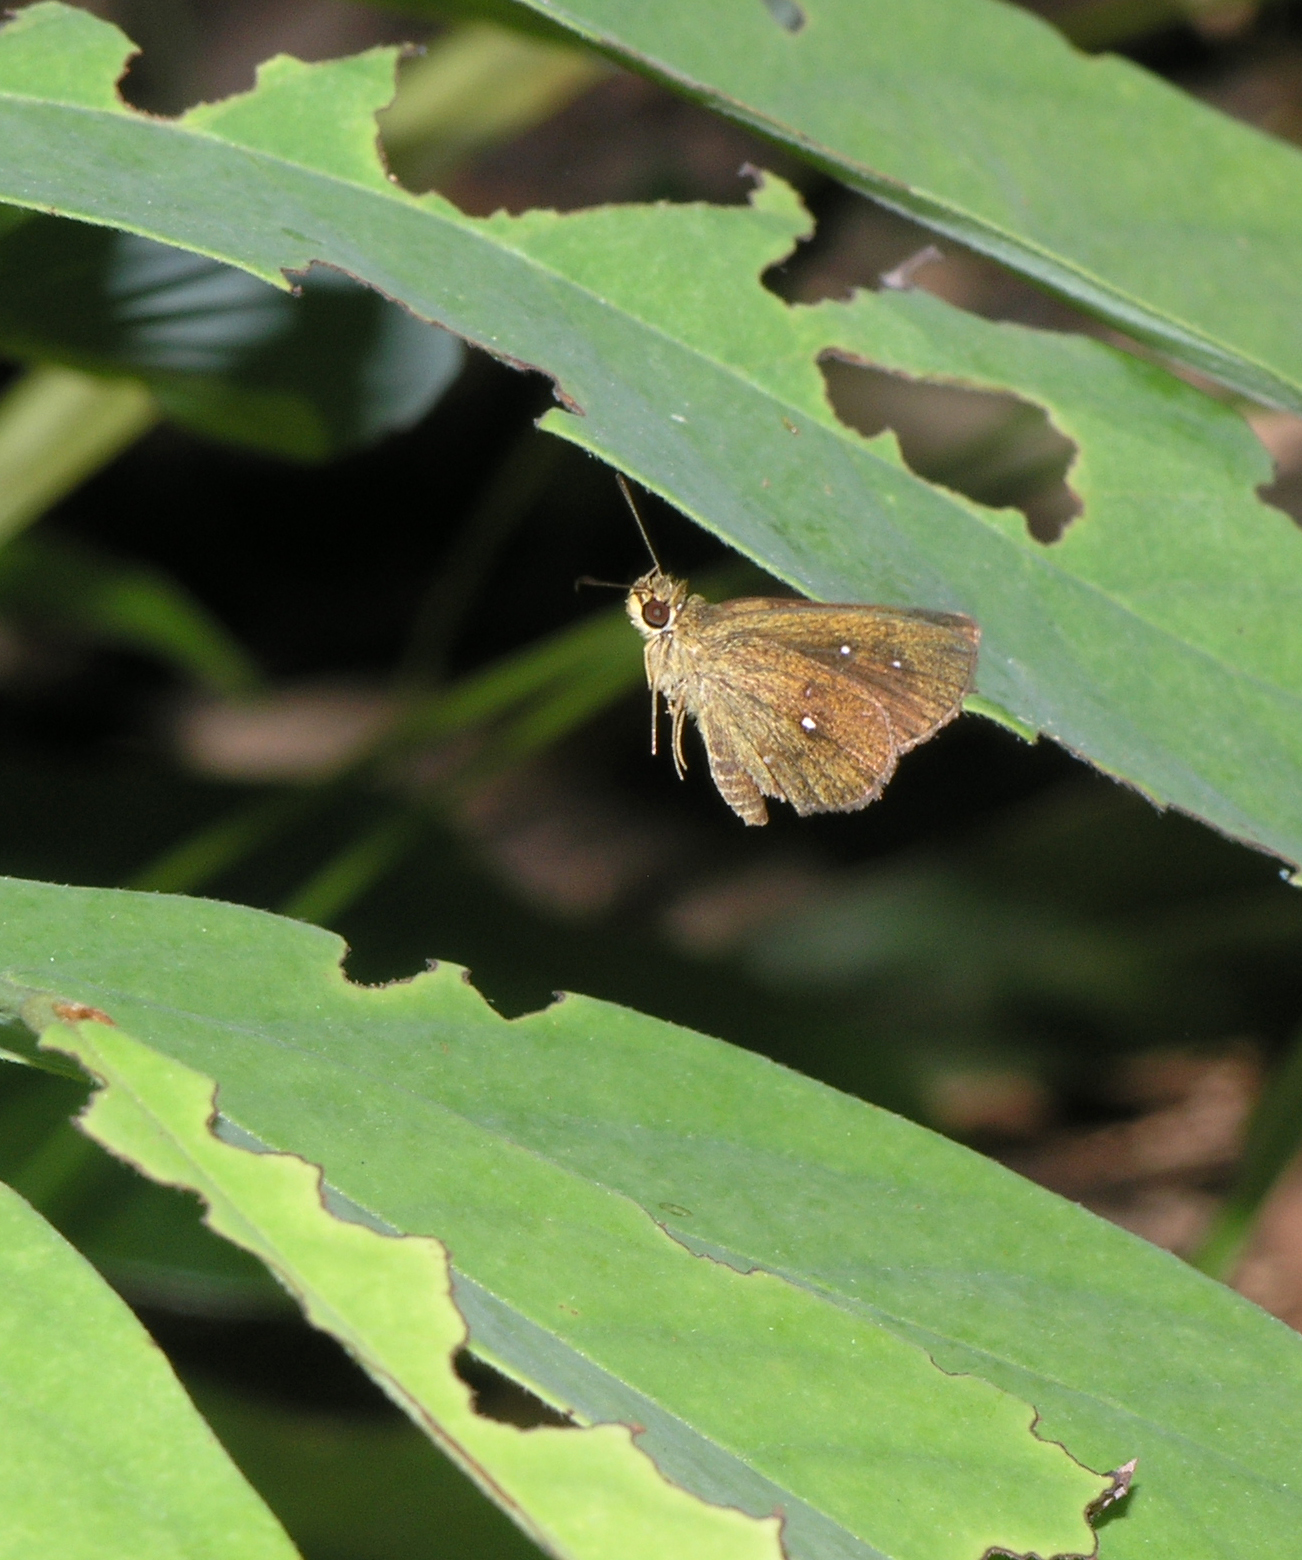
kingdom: Animalia
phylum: Arthropoda
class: Insecta
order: Lepidoptera
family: Hesperiidae
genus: Iambrix
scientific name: Iambrix salsala
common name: Chestnut bob
